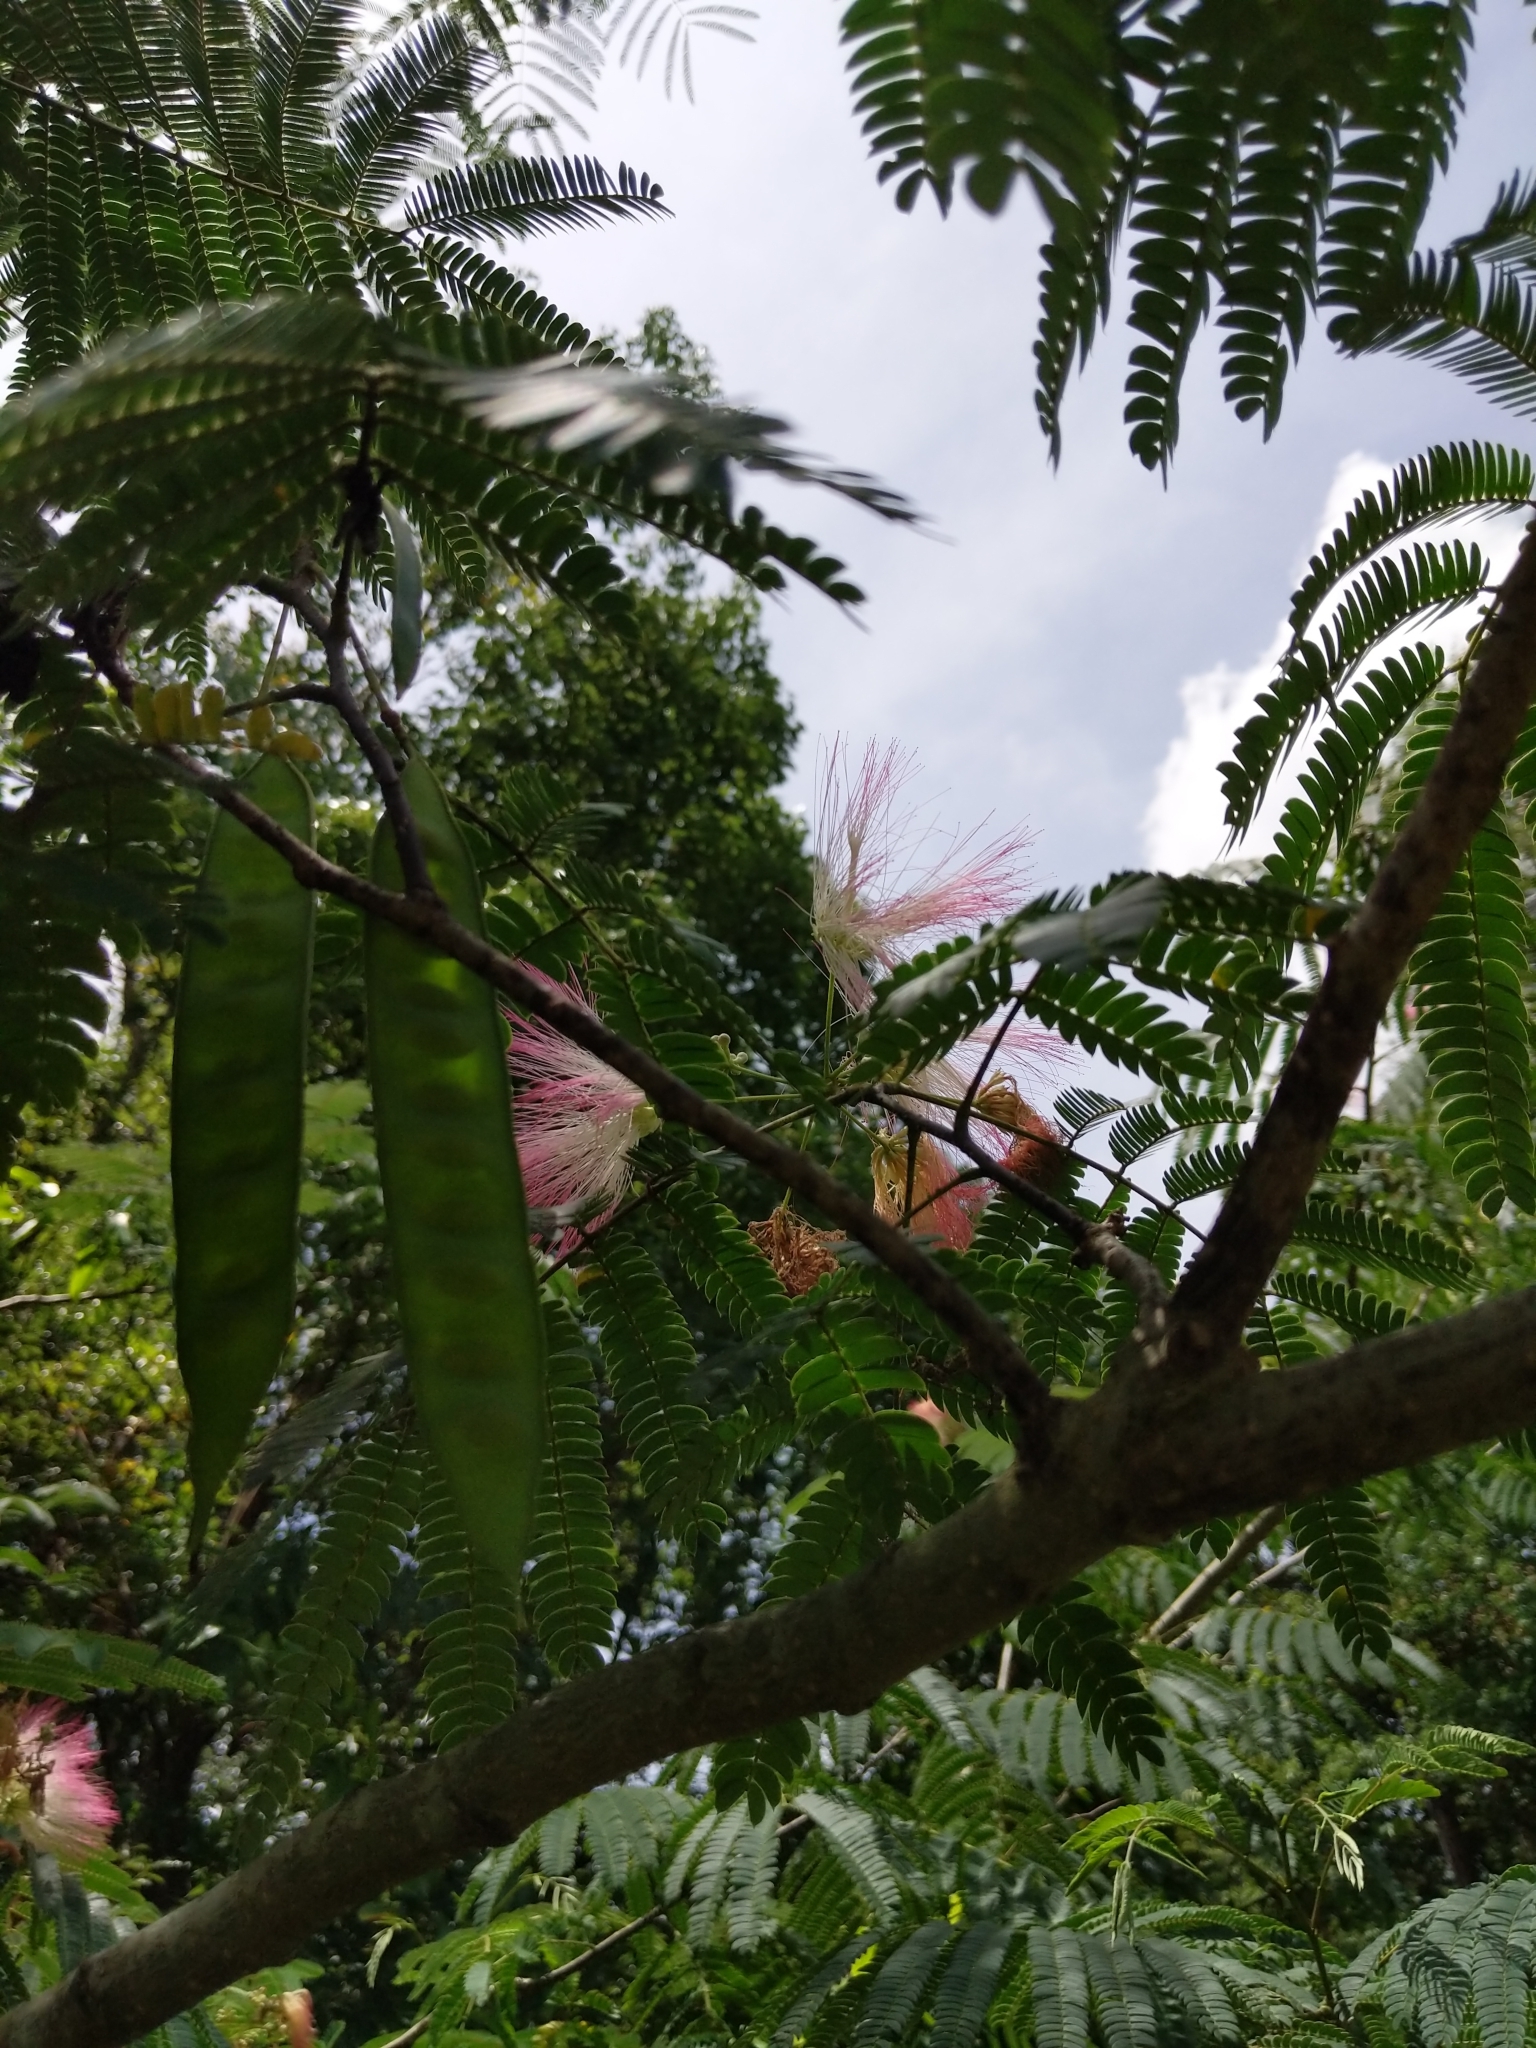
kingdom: Plantae
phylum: Tracheophyta
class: Magnoliopsida
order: Fabales
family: Fabaceae
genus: Albizia
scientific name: Albizia julibrissin
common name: Silktree
